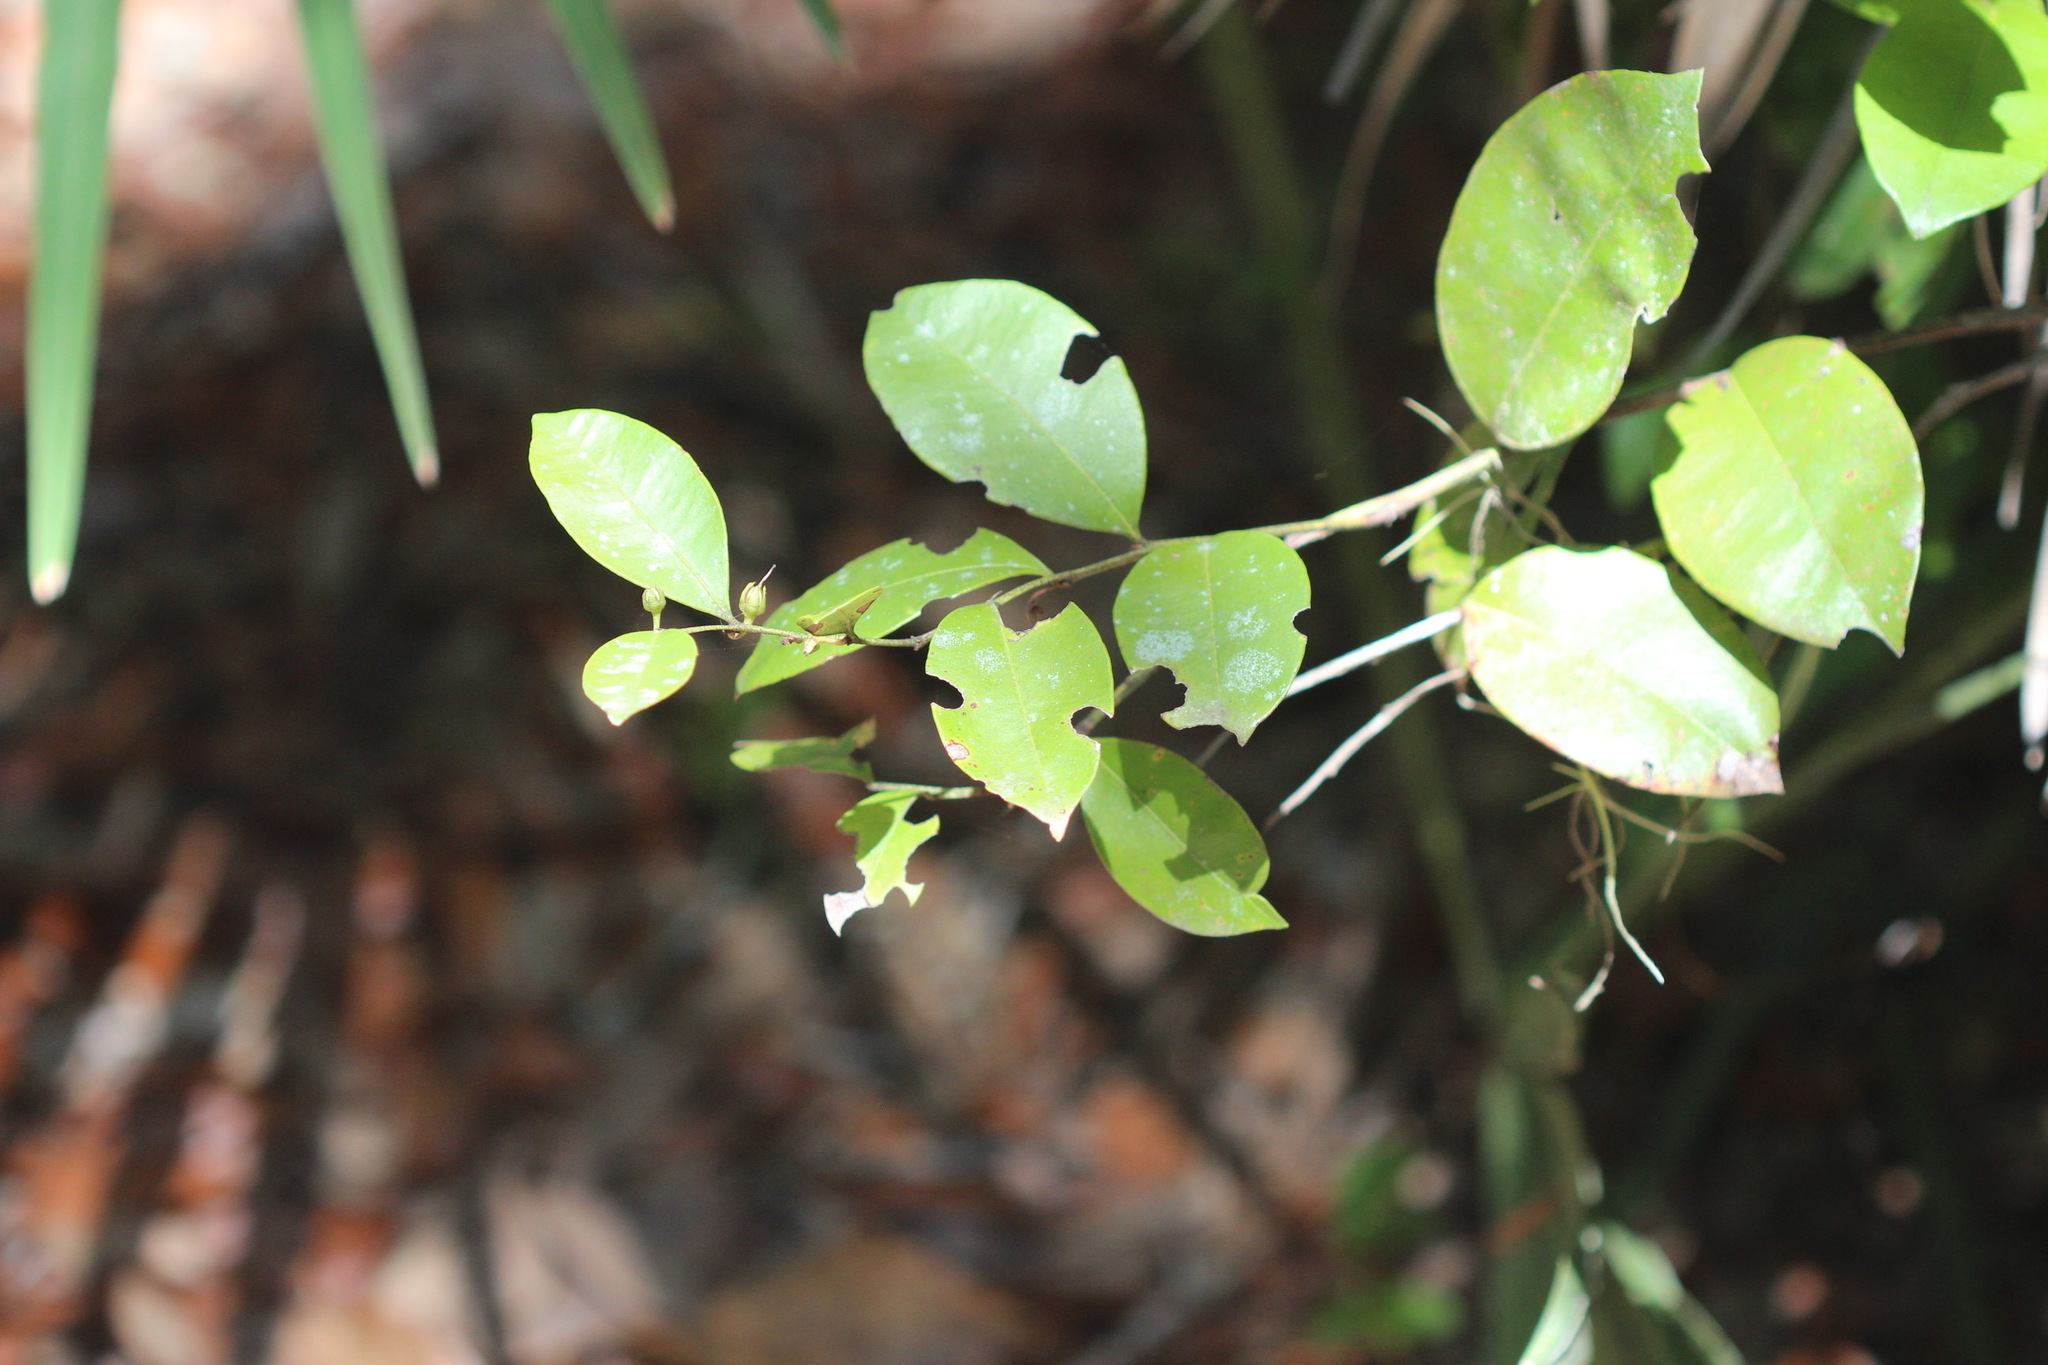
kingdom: Plantae
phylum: Tracheophyta
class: Magnoliopsida
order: Ericales
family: Ericaceae
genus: Lyonia
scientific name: Lyonia lucida
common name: Fetterbush
